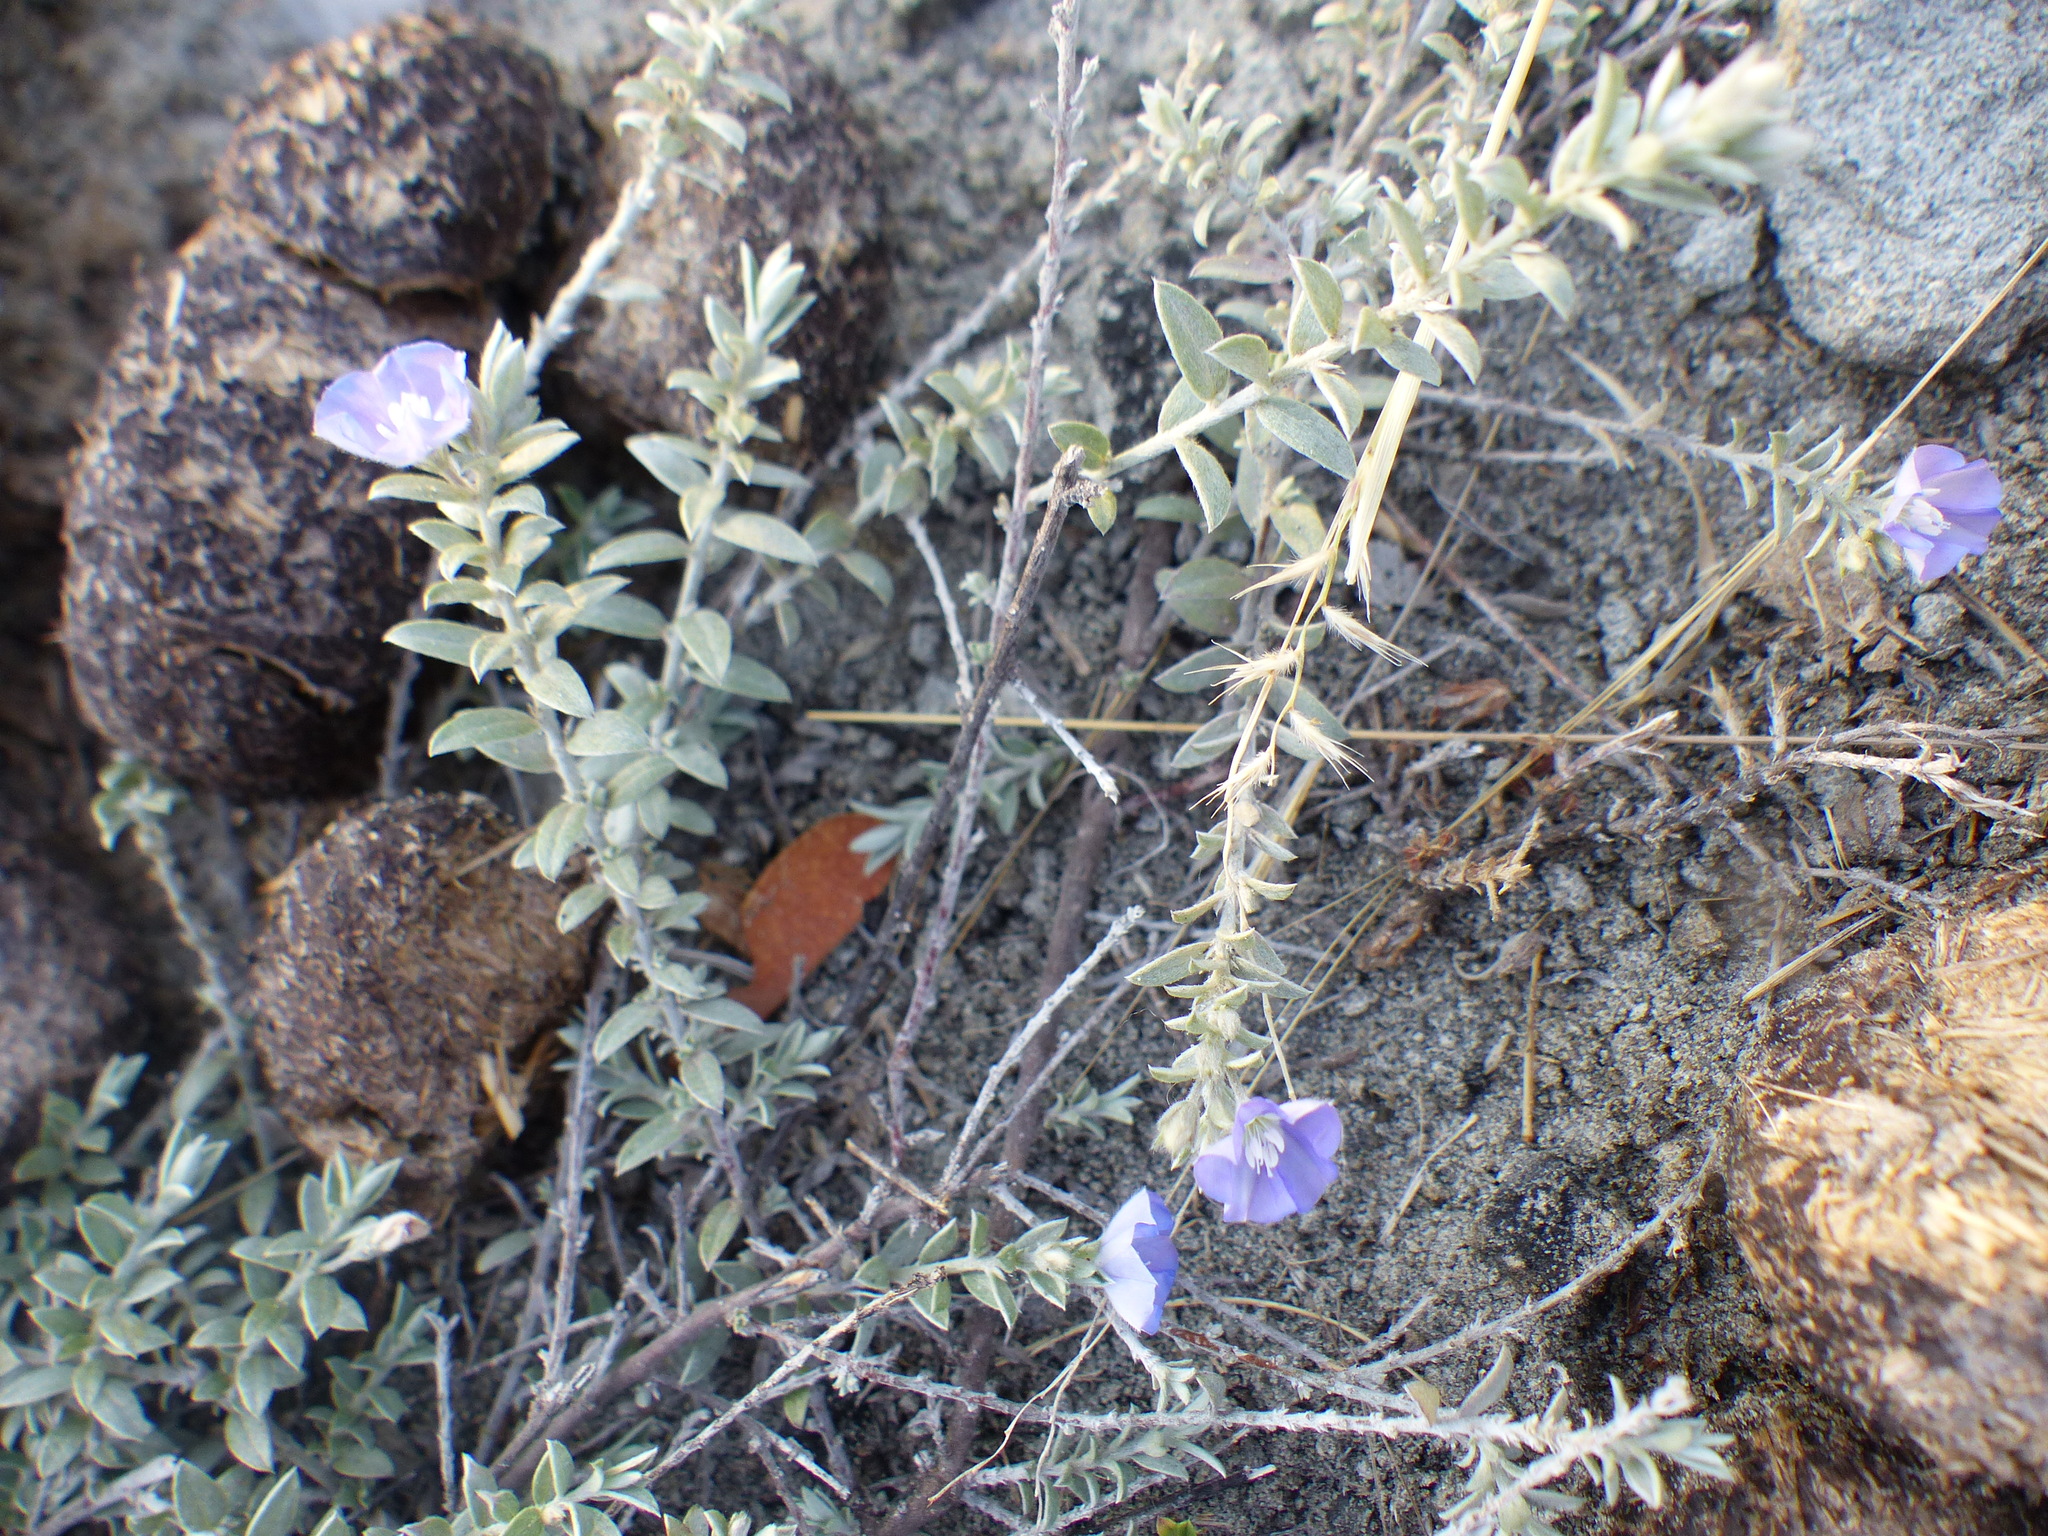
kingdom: Plantae
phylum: Tracheophyta
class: Magnoliopsida
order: Solanales
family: Convolvulaceae
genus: Evolvulus
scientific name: Evolvulus alsinoides
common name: Slender dwarf morning-glory
